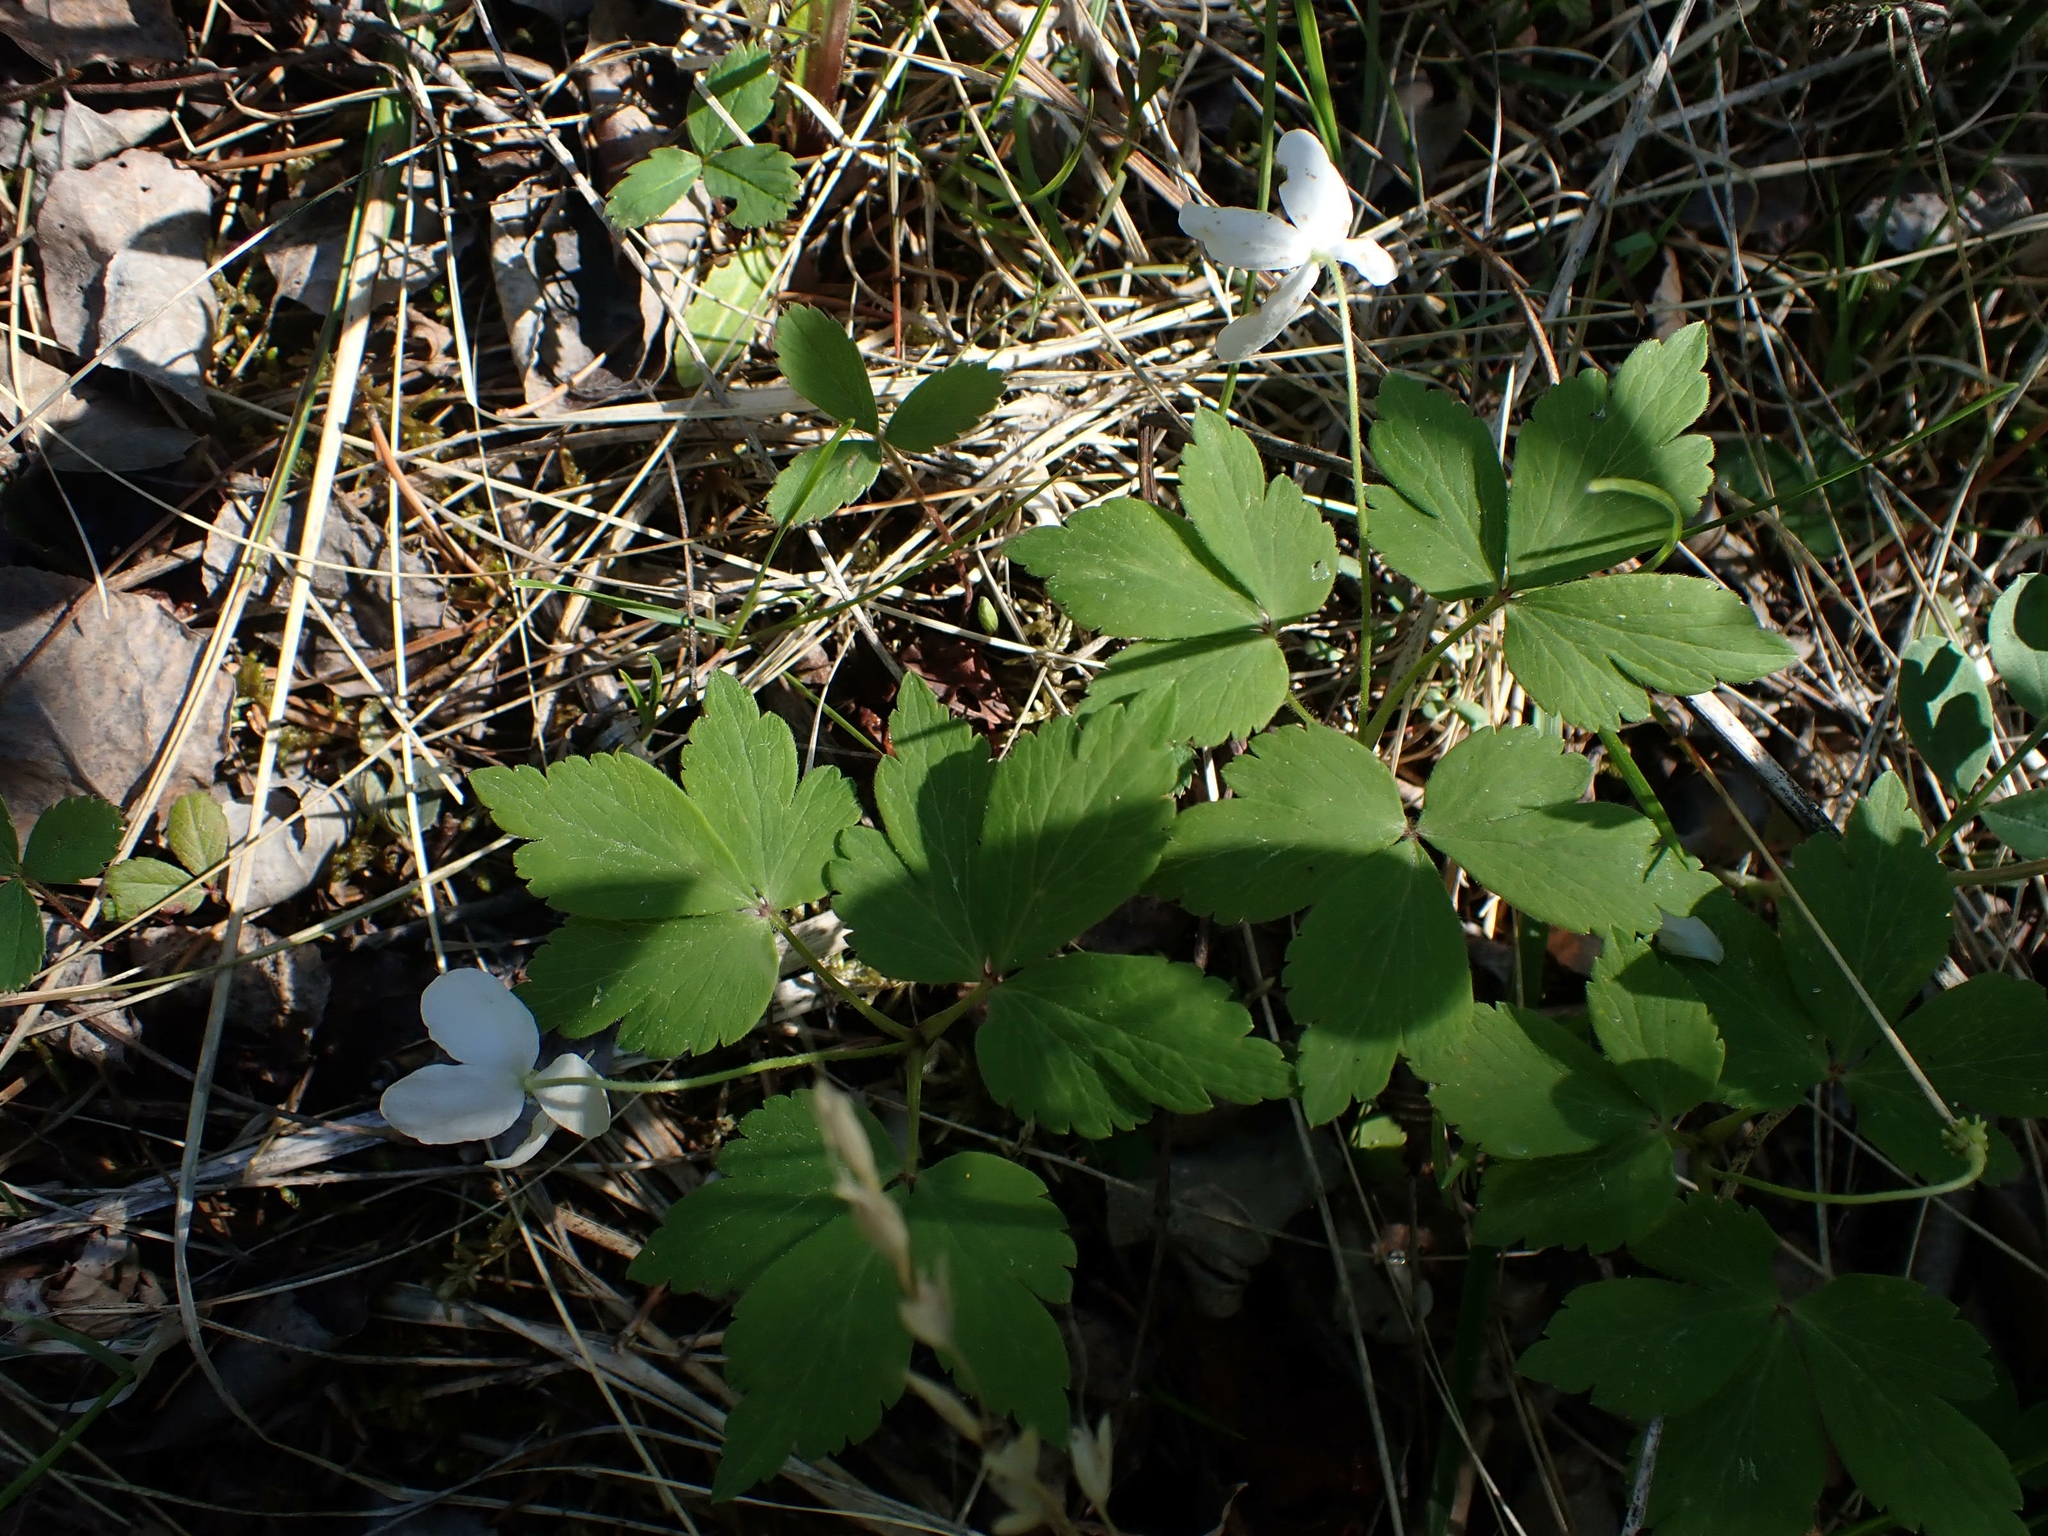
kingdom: Plantae
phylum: Tracheophyta
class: Magnoliopsida
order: Ranunculales
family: Ranunculaceae
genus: Anemone
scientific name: Anemone quinquefolia
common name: Wood anemone
